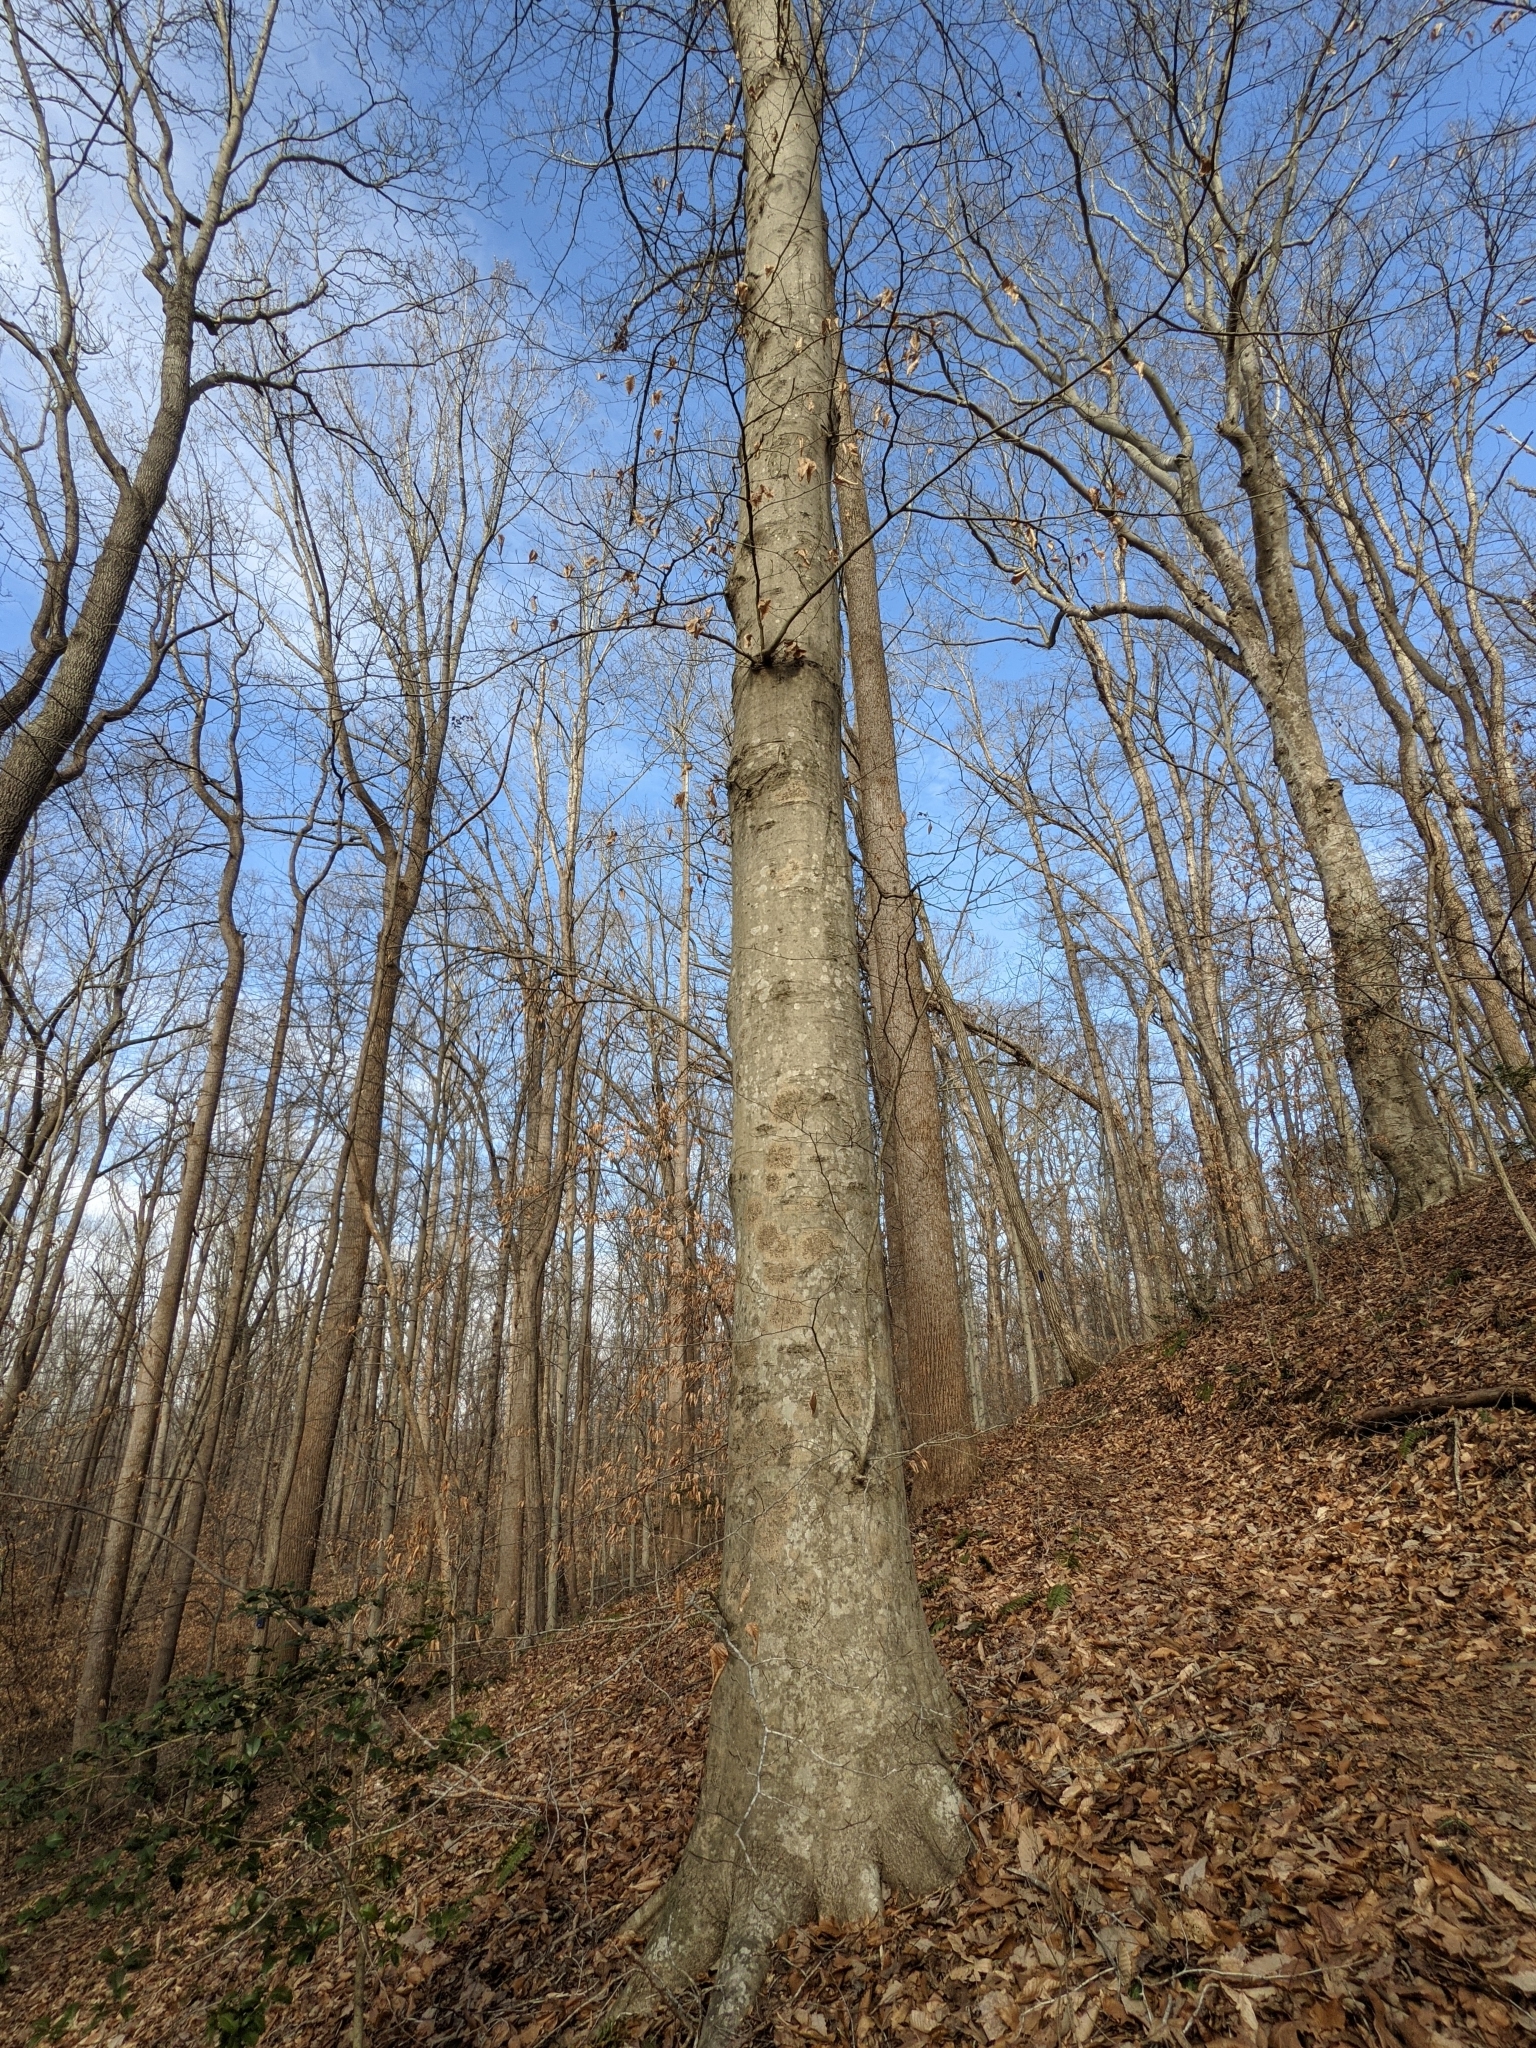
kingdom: Plantae
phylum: Tracheophyta
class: Magnoliopsida
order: Fagales
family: Fagaceae
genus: Fagus
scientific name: Fagus grandifolia
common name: American beech
